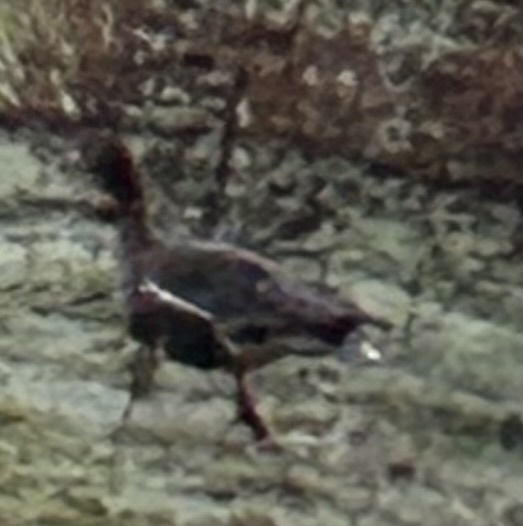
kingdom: Animalia
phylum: Chordata
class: Aves
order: Anseriformes
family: Anatidae
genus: Anser
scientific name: Anser albifrons
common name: Greater white-fronted goose
